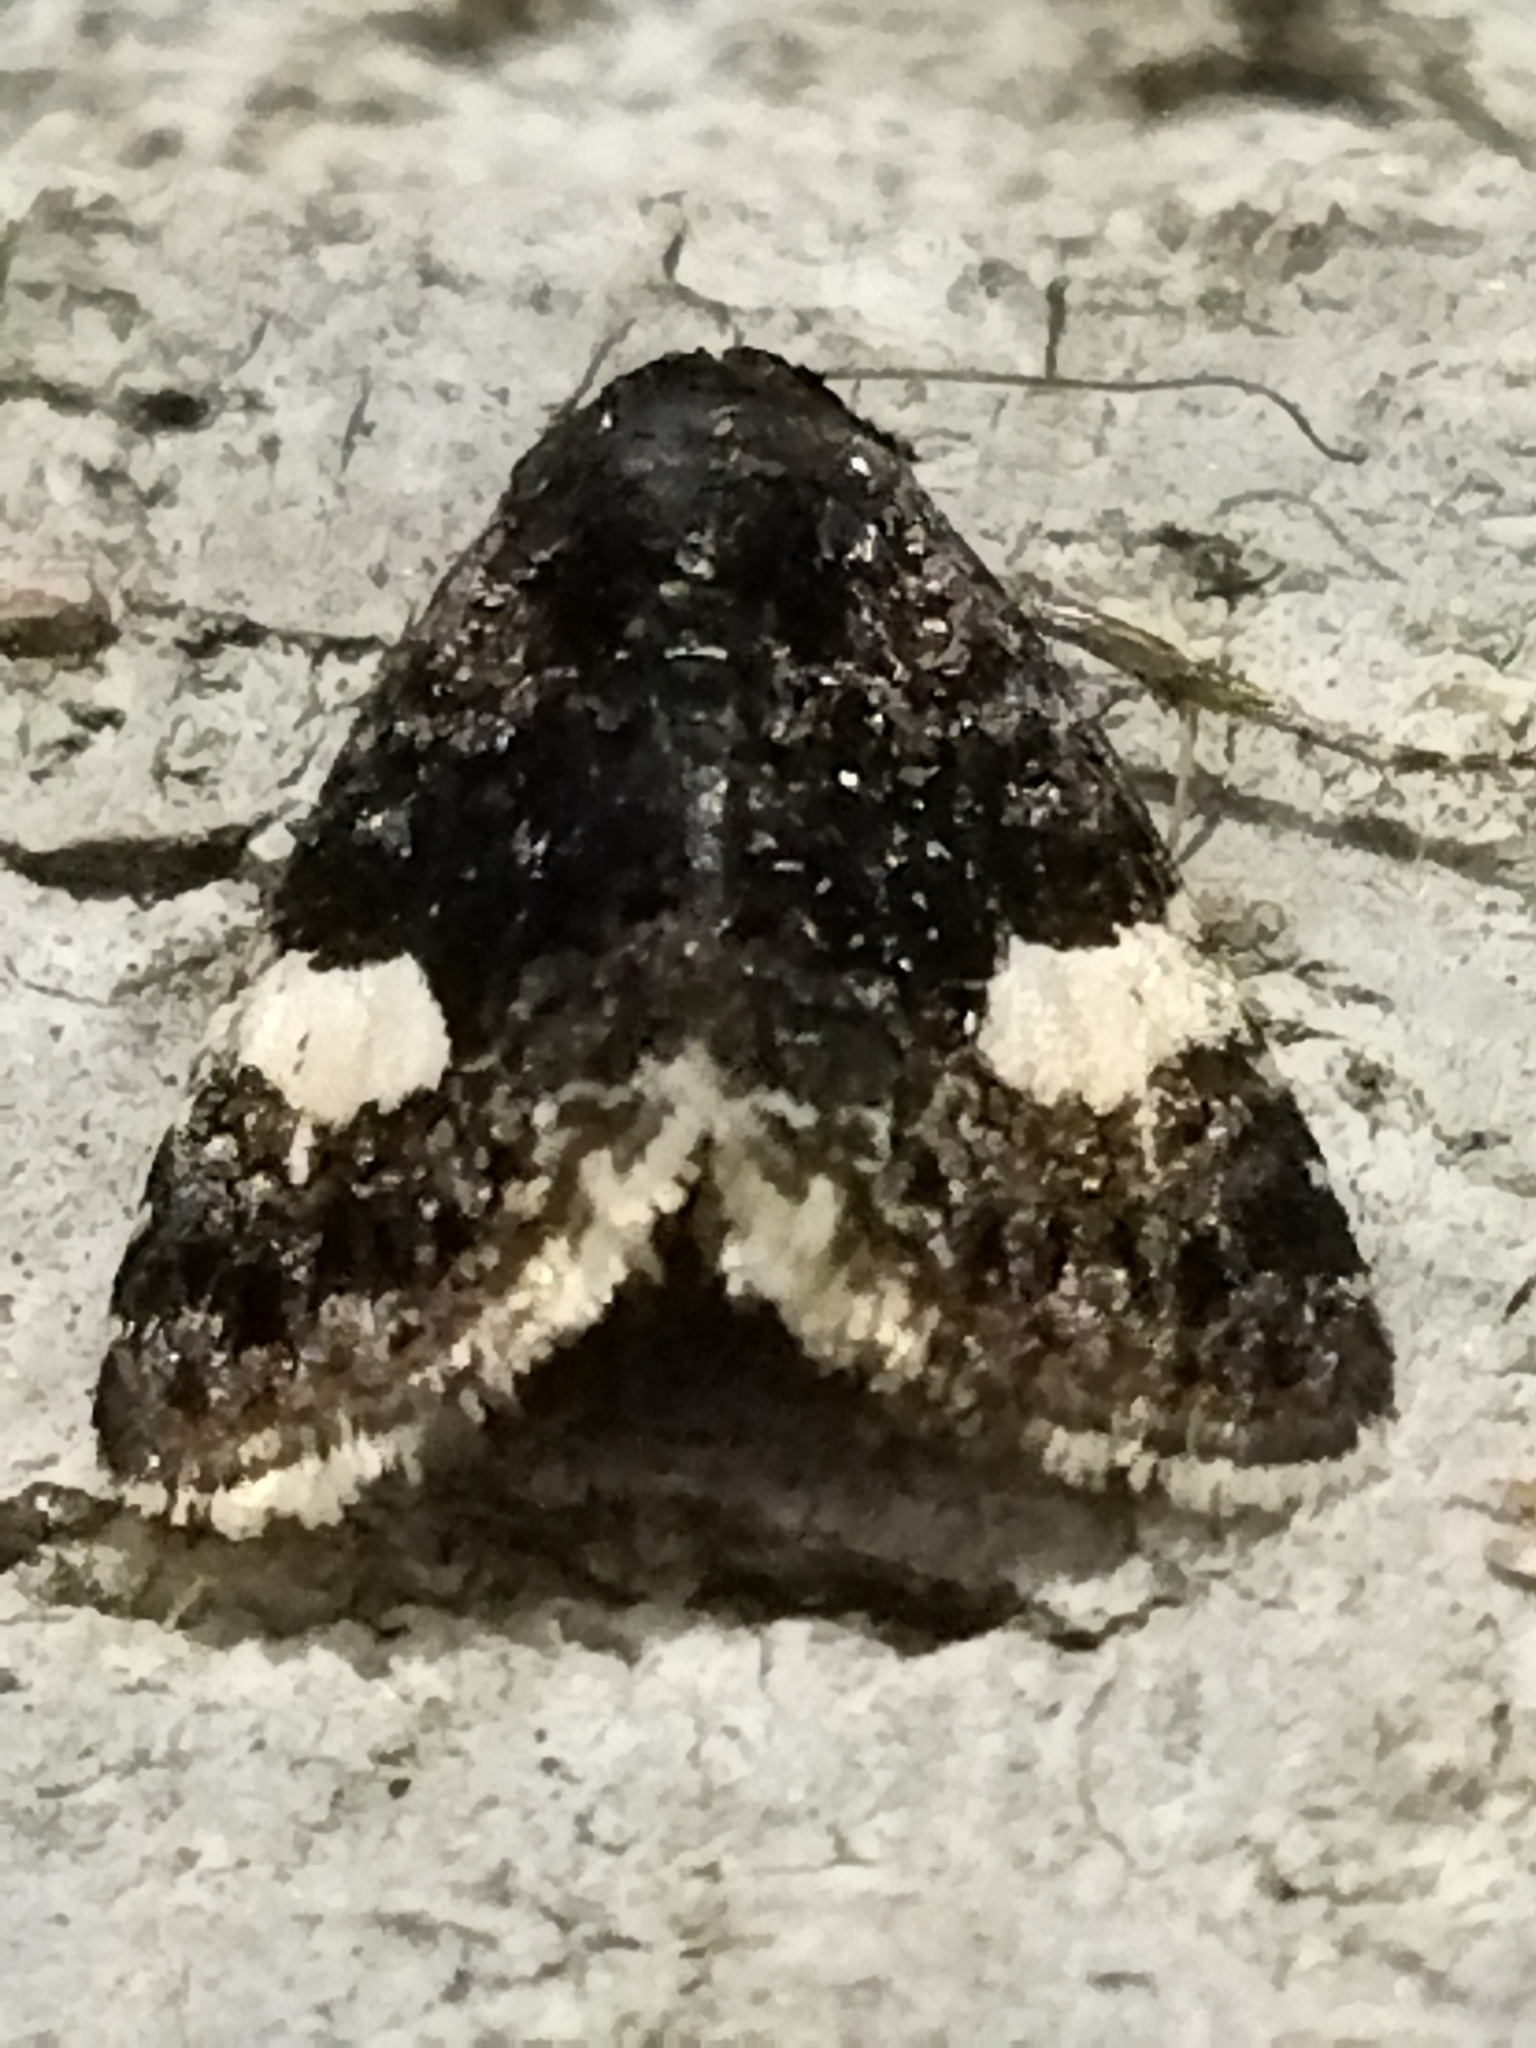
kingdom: Animalia
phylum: Arthropoda
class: Insecta
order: Lepidoptera
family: Erebidae
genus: Tyta
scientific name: Tyta luctuosa
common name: Four-spotted
